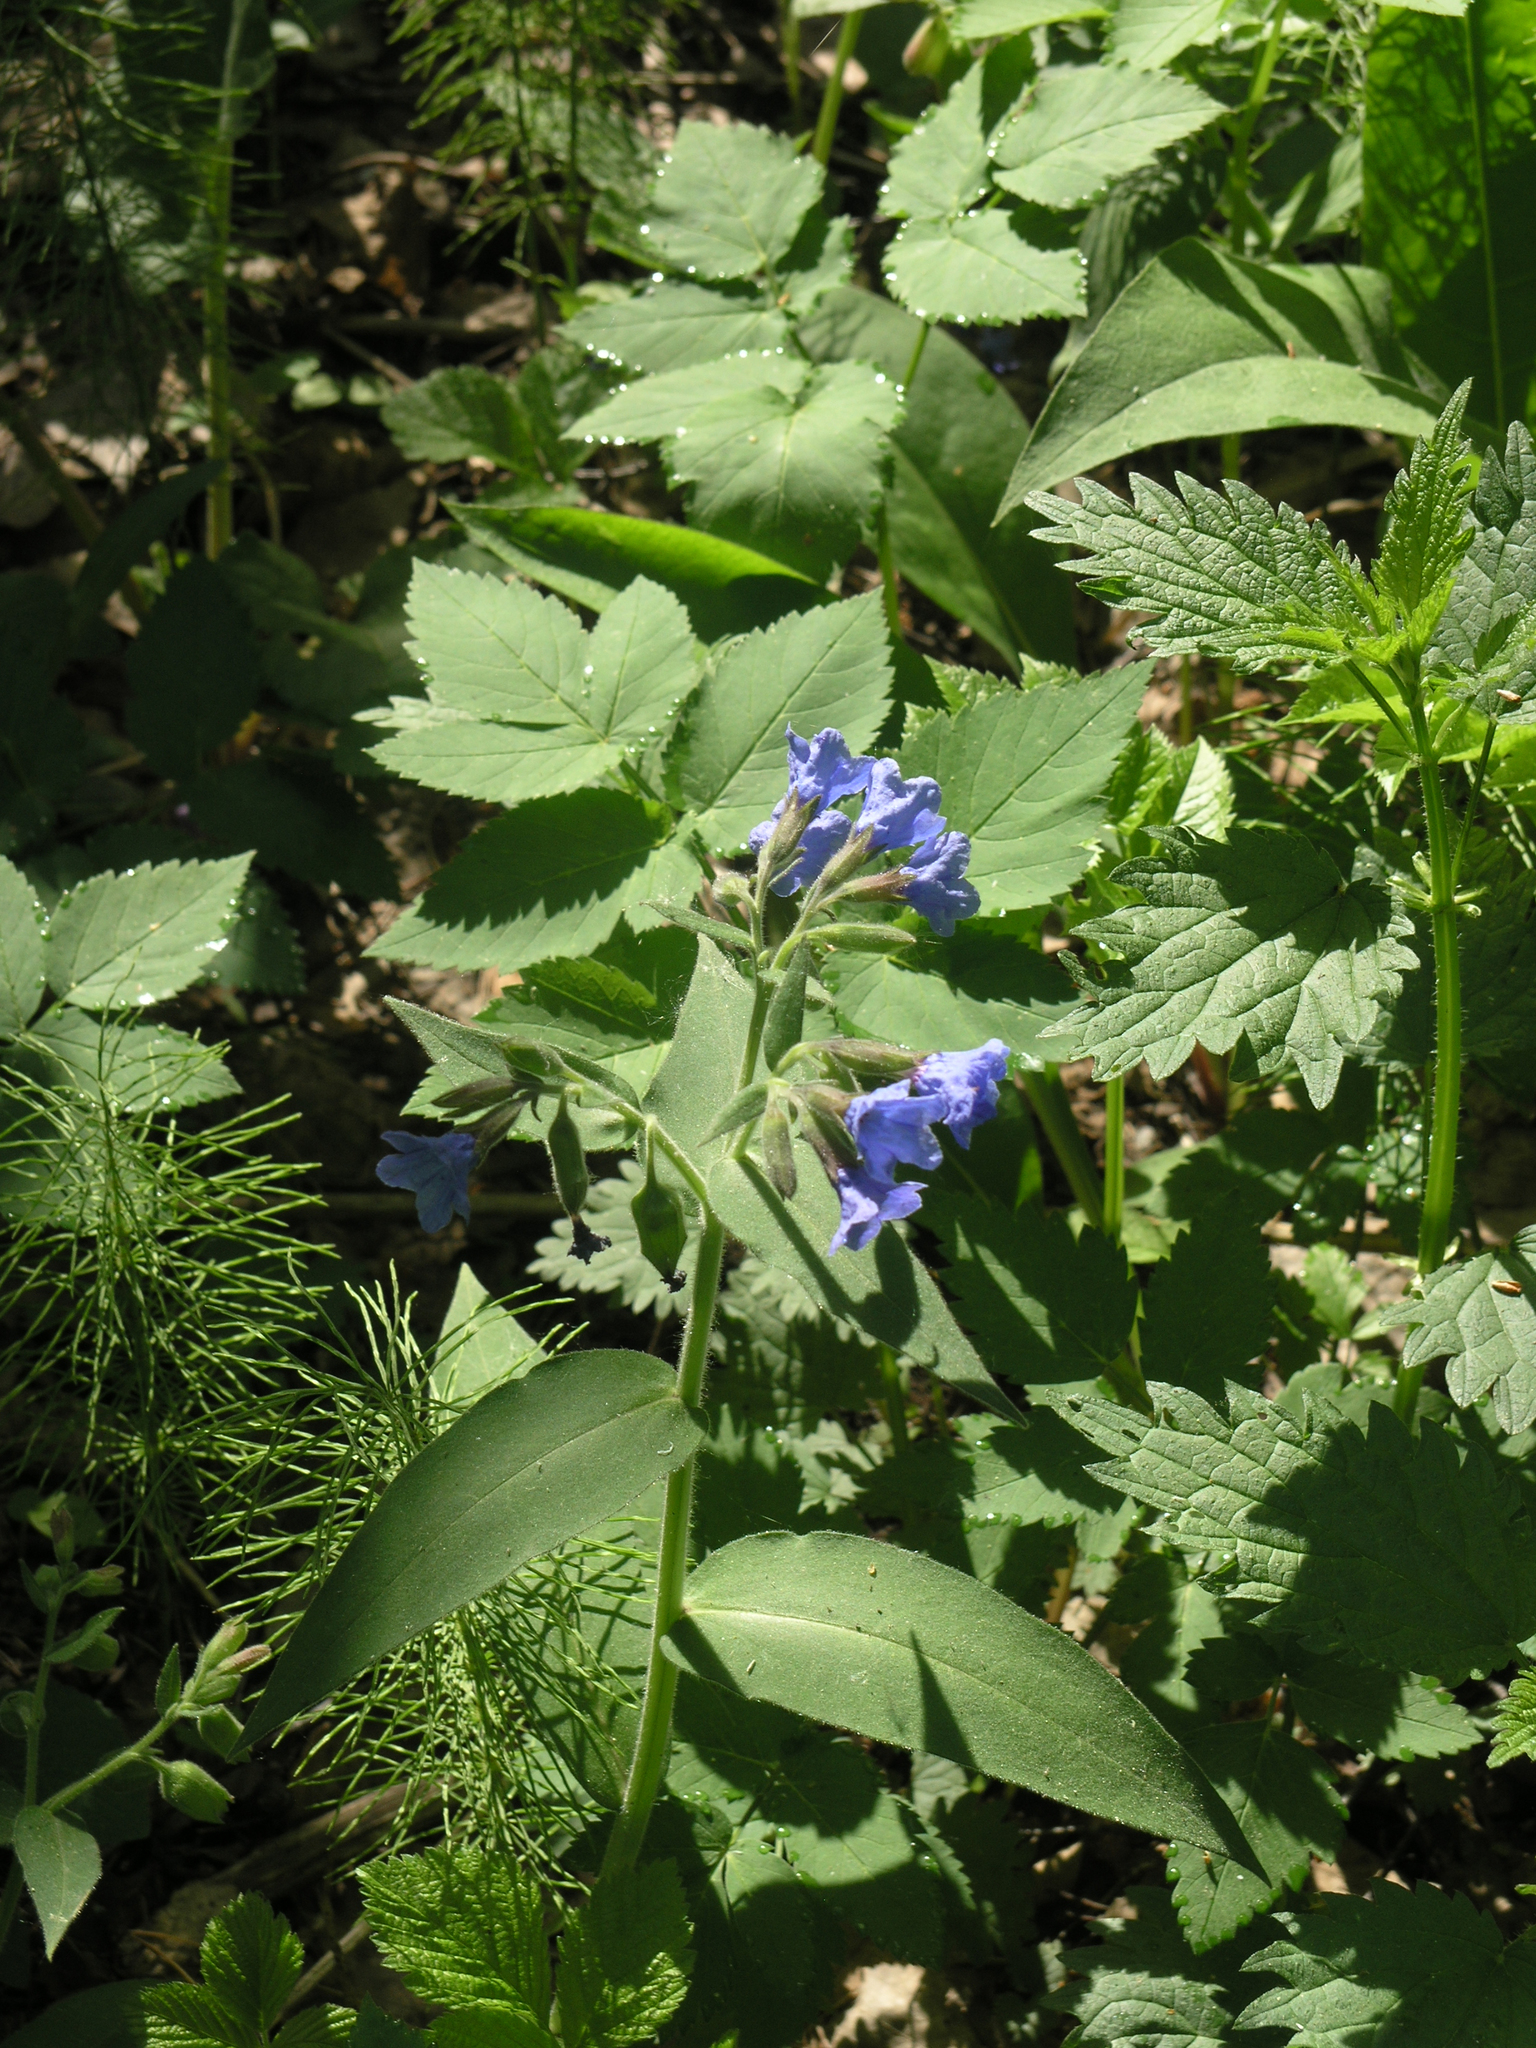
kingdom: Plantae
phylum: Tracheophyta
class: Magnoliopsida
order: Boraginales
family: Boraginaceae
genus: Pulmonaria
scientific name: Pulmonaria mollis
